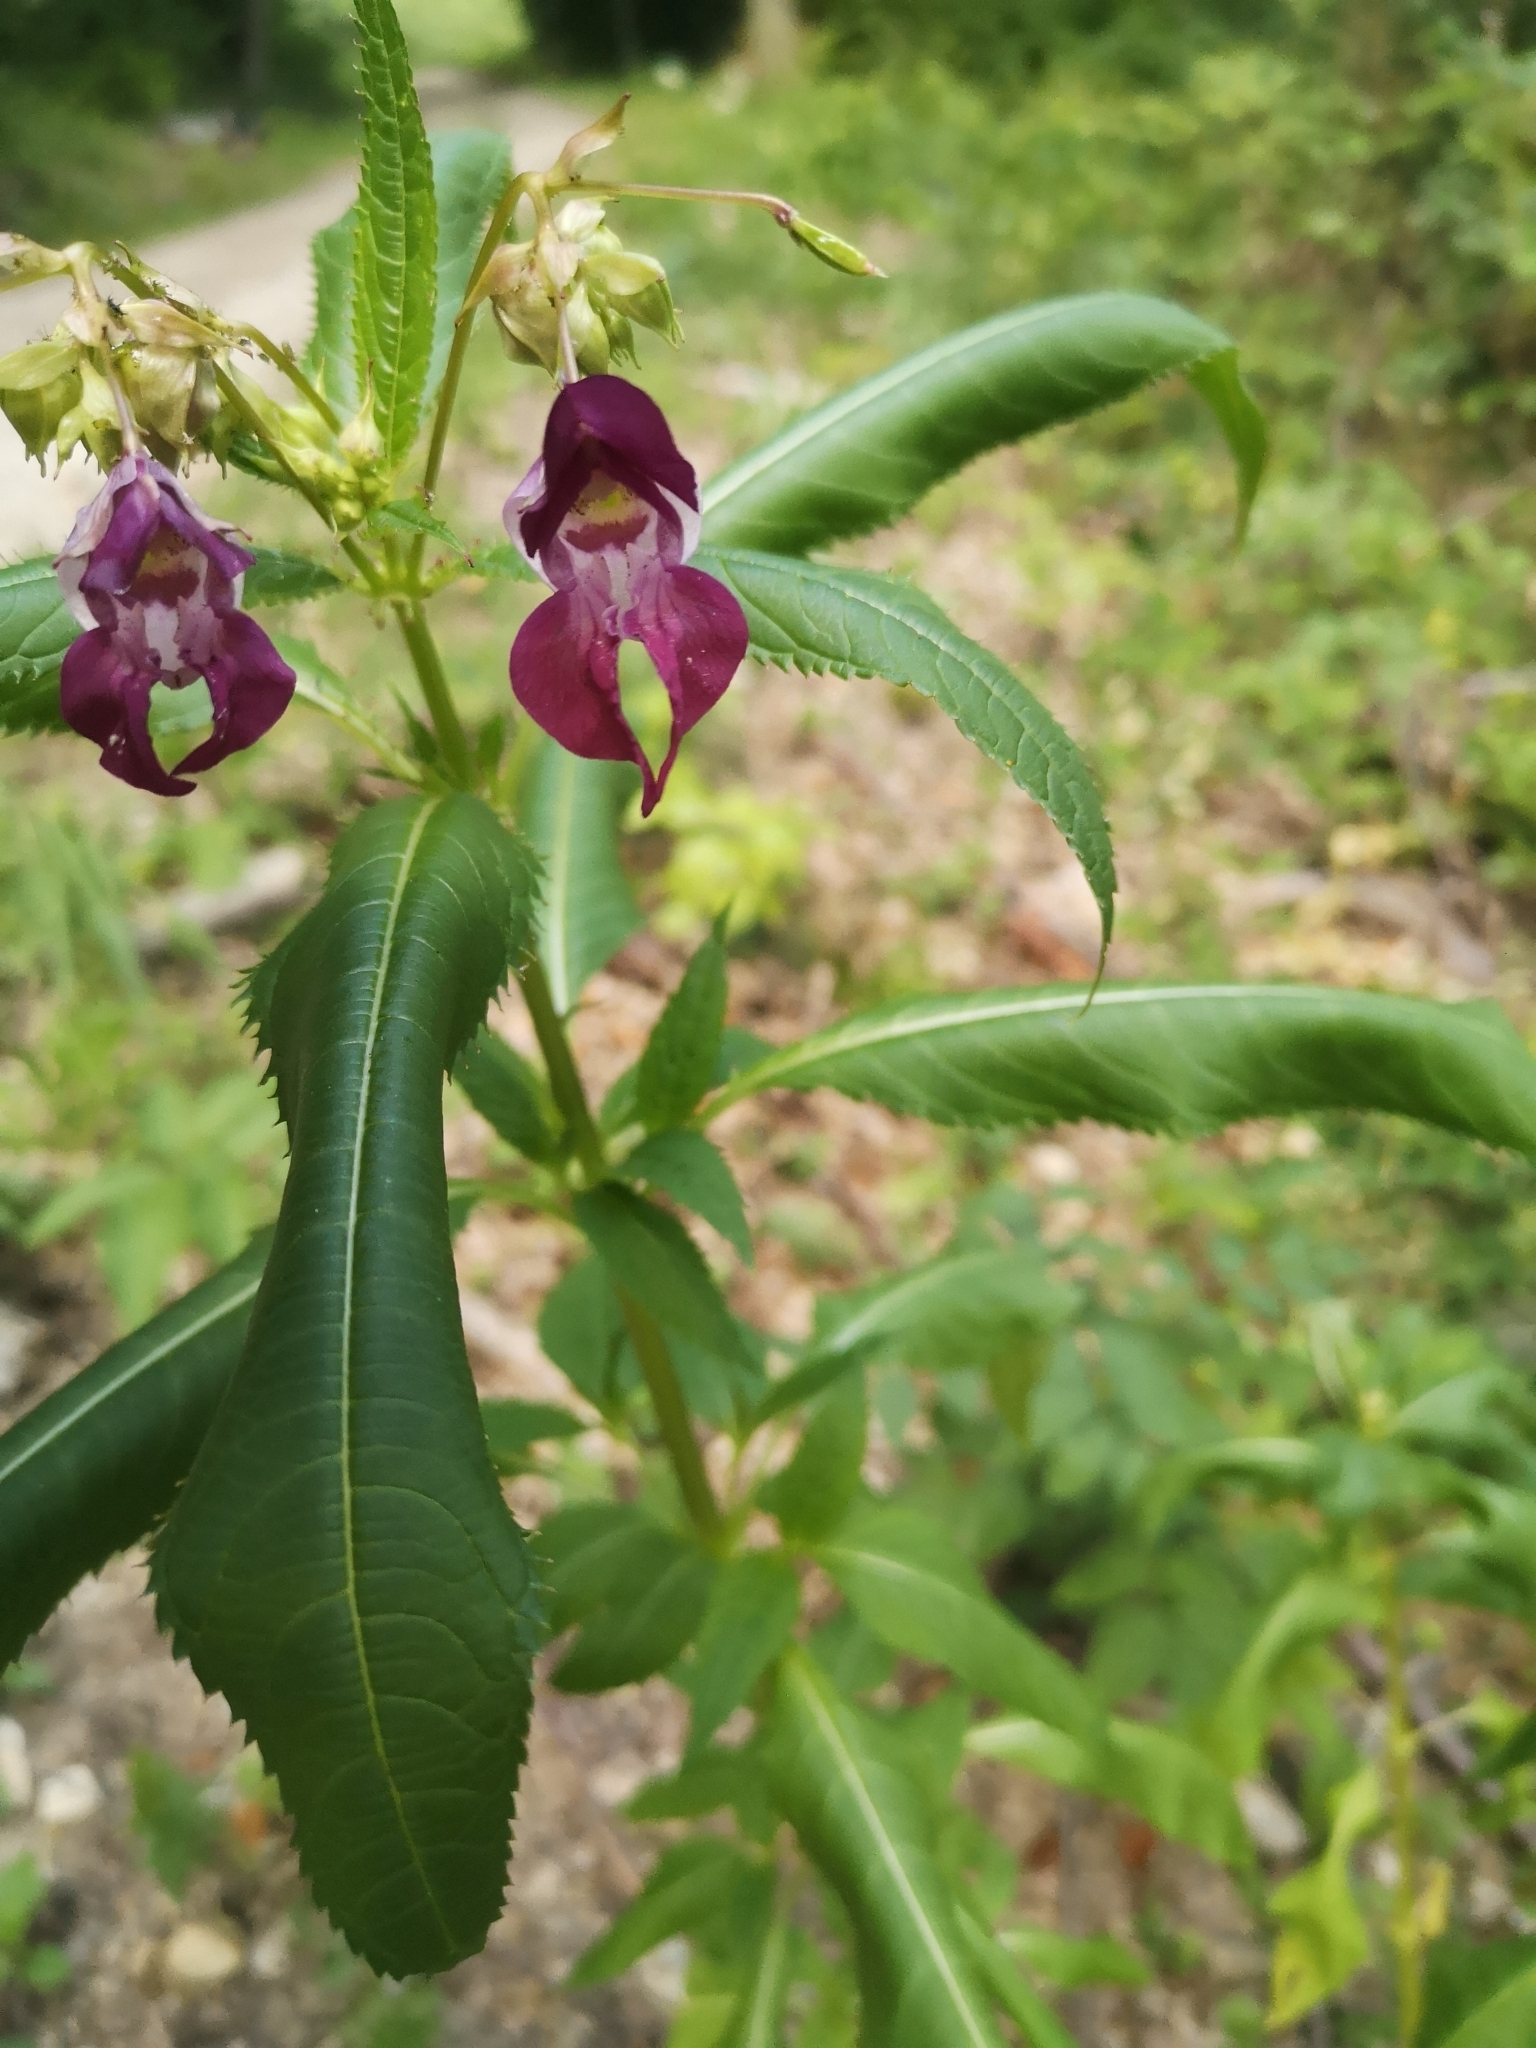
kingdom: Plantae
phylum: Tracheophyta
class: Magnoliopsida
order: Ericales
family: Balsaminaceae
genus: Impatiens
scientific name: Impatiens glandulifera
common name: Himalayan balsam
